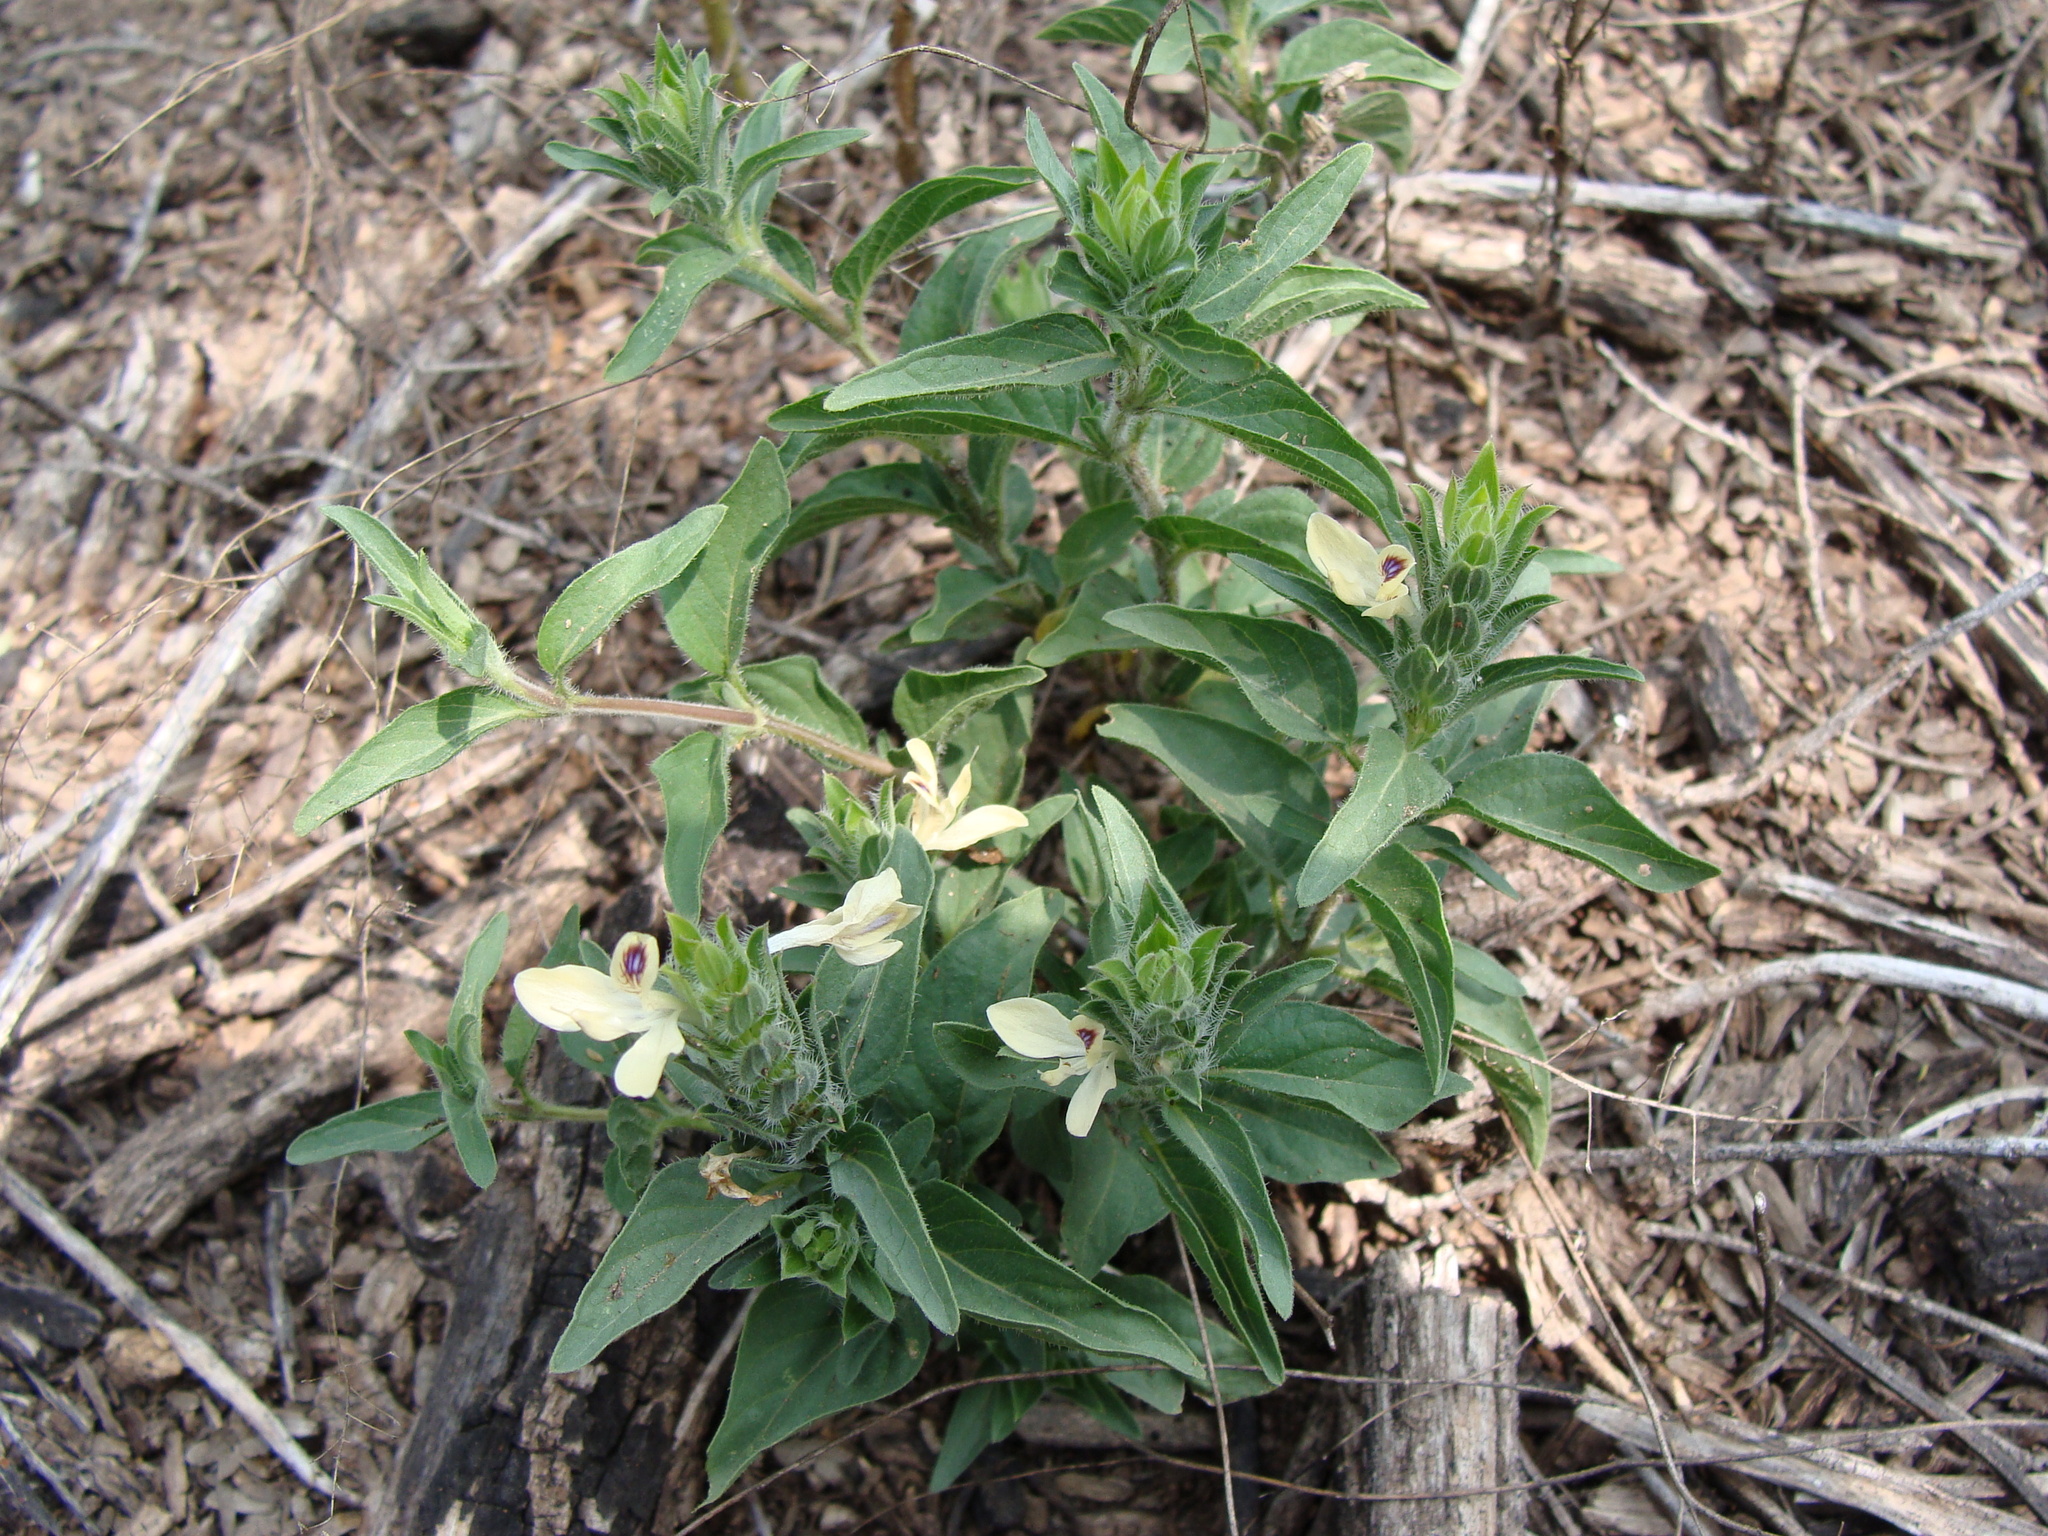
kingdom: Plantae
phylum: Tracheophyta
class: Magnoliopsida
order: Lamiales
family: Acanthaceae
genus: Tetramerium
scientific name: Tetramerium nervosum
